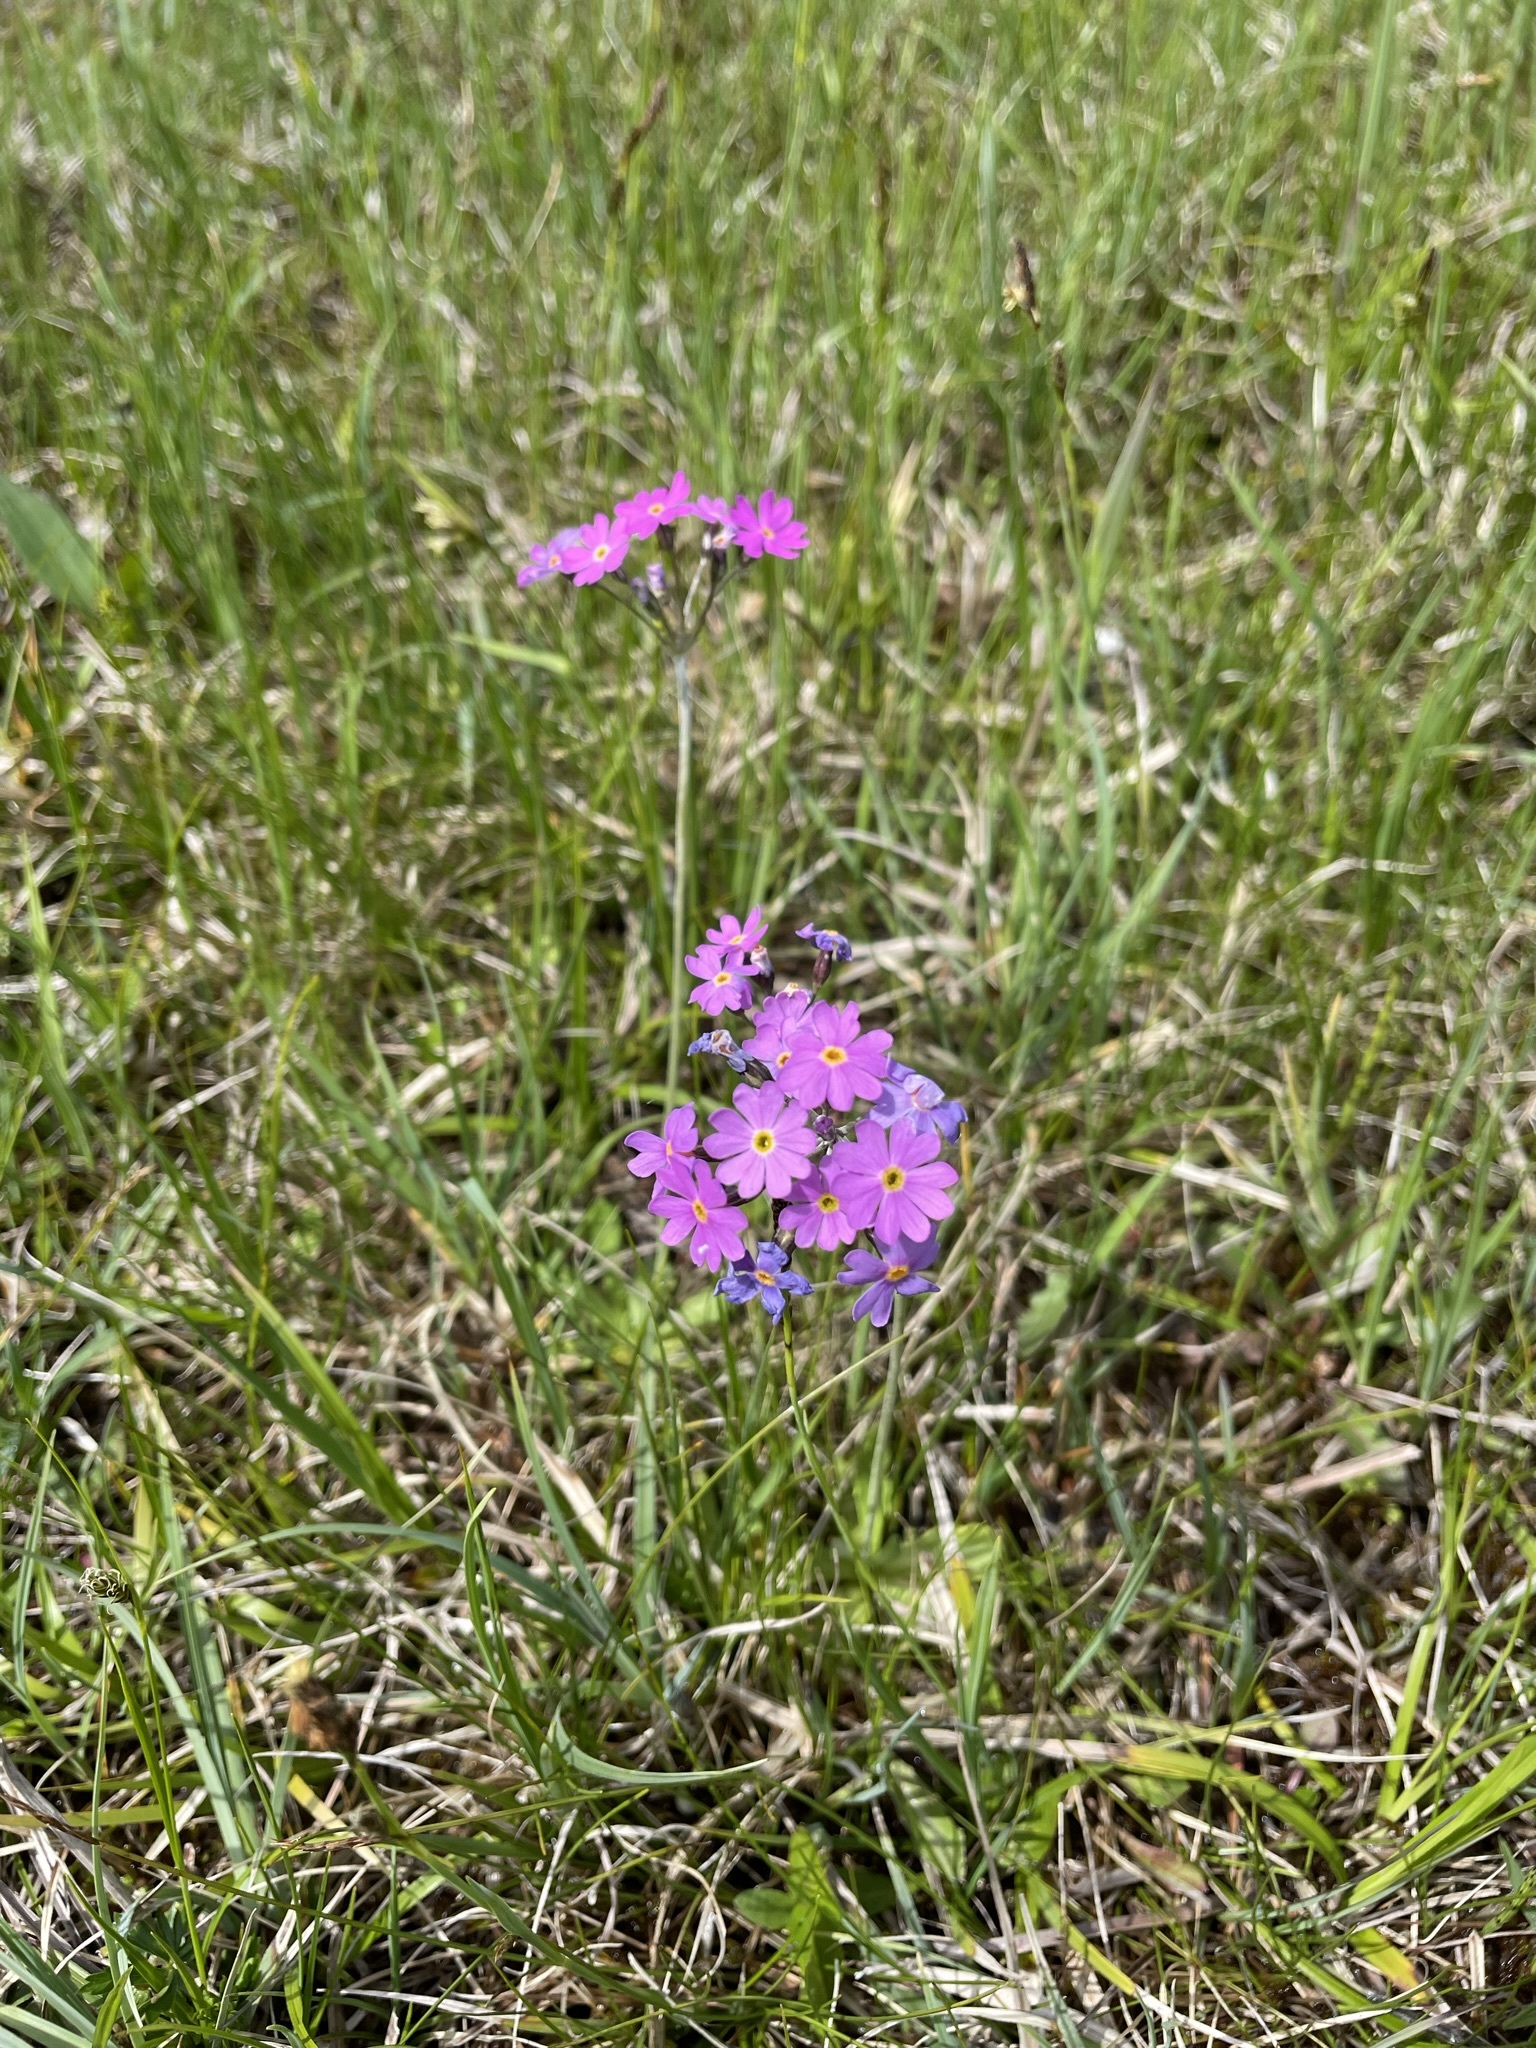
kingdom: Plantae
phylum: Tracheophyta
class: Magnoliopsida
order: Ericales
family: Primulaceae
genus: Primula
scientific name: Primula farinosa
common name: Bird's-eye primrose
